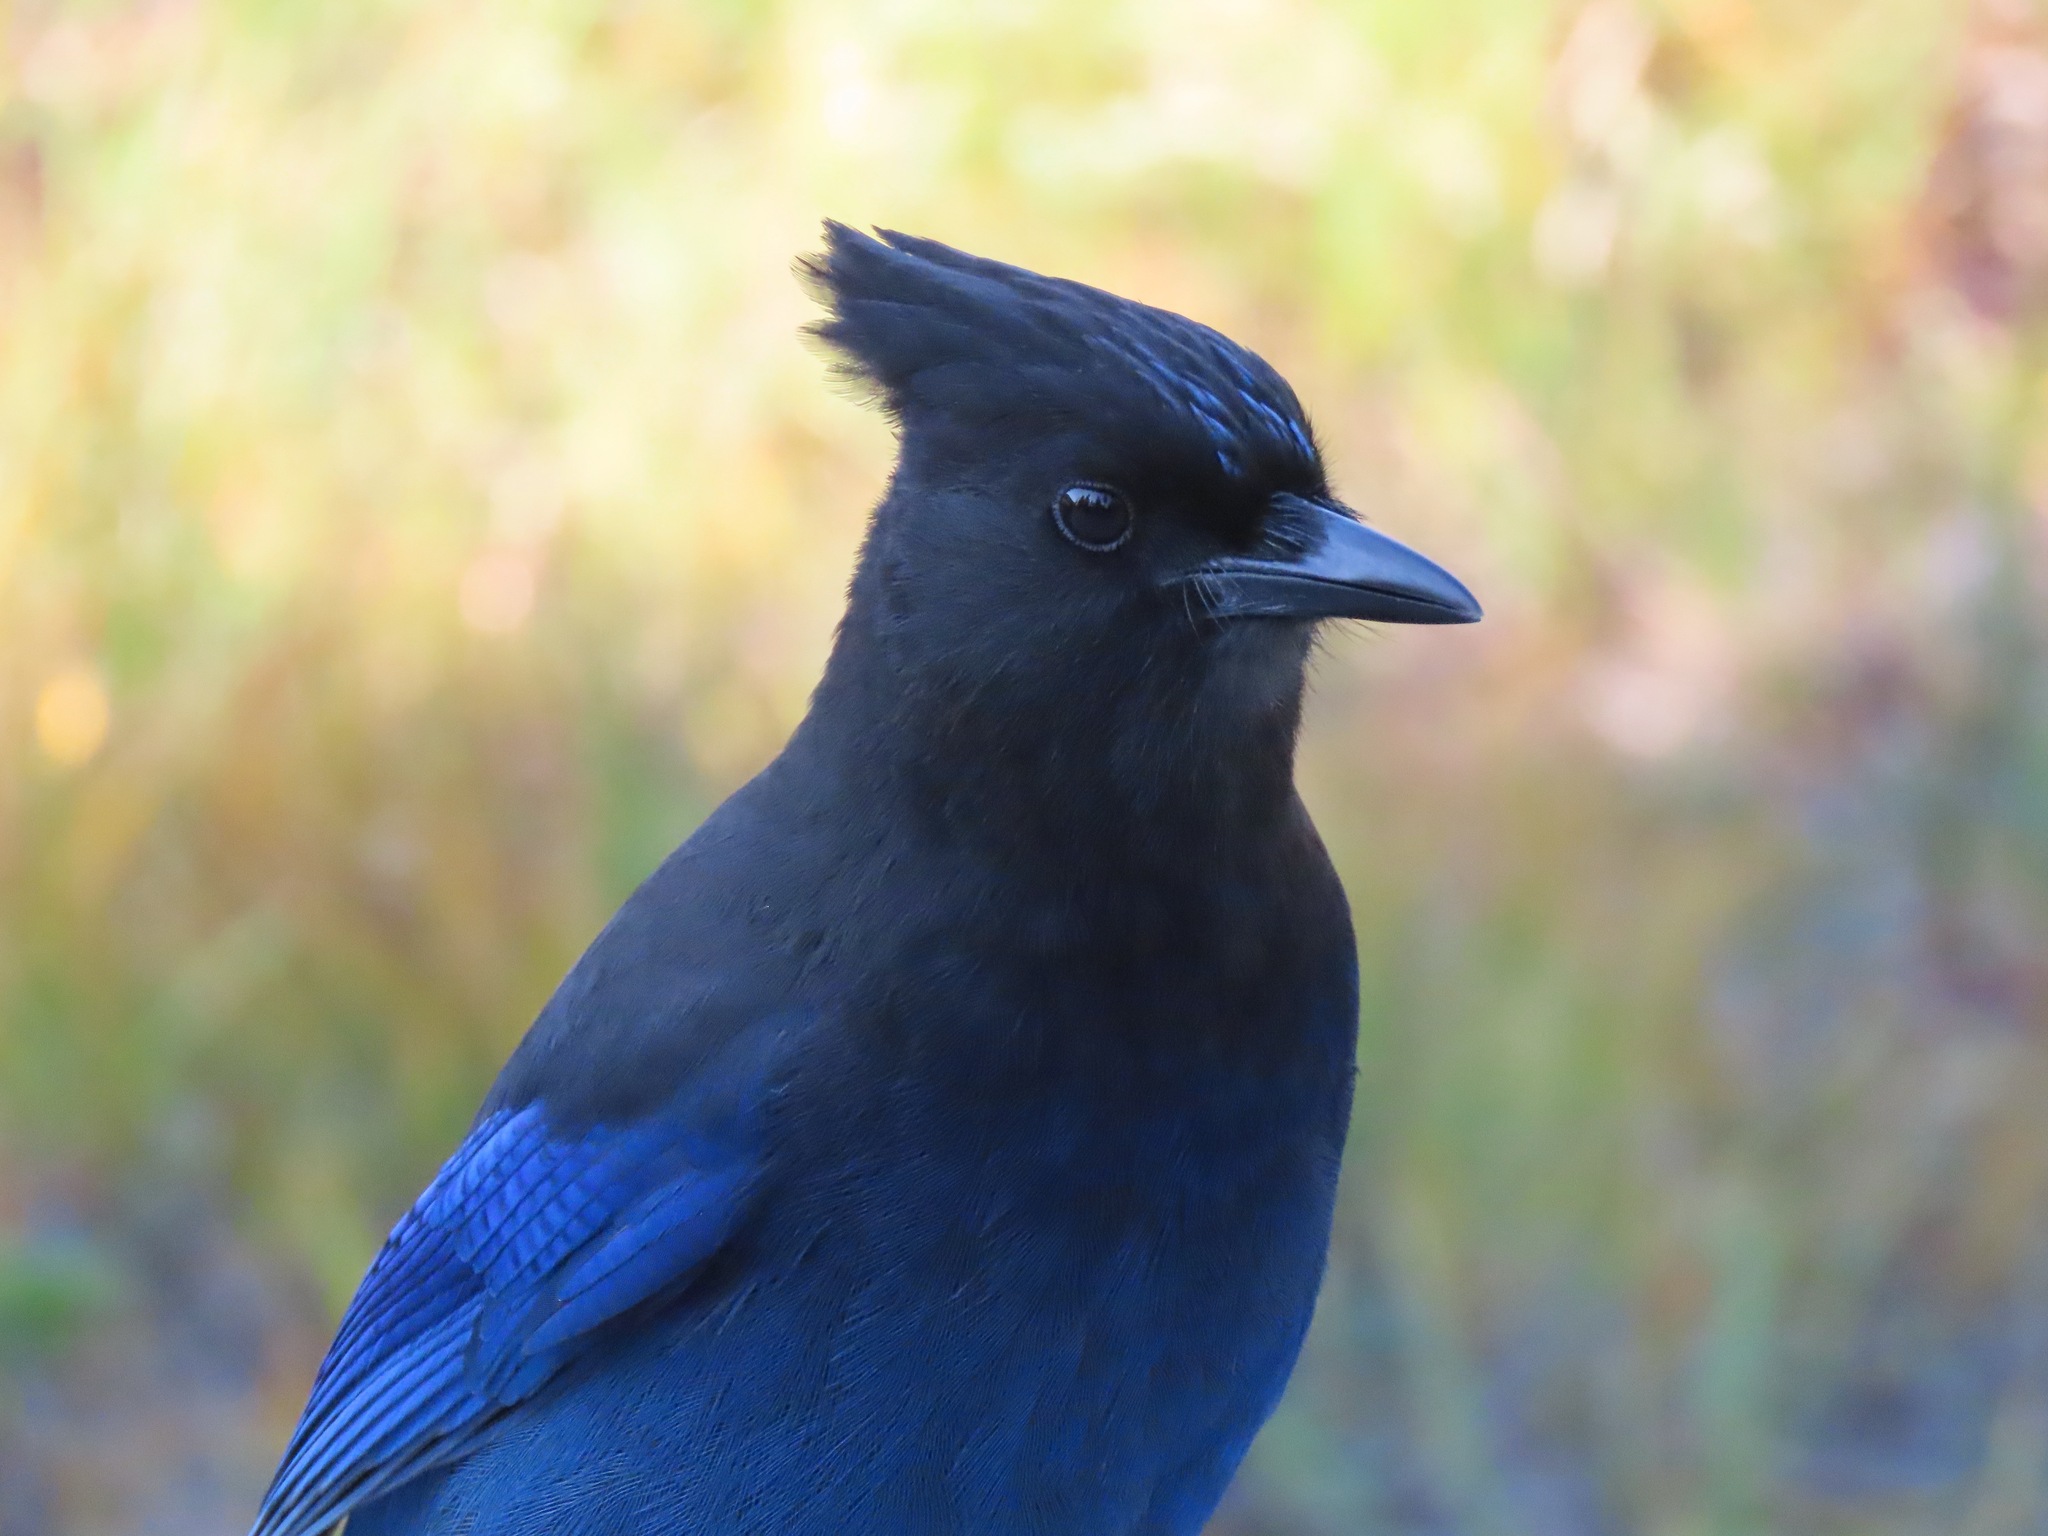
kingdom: Animalia
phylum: Chordata
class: Aves
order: Passeriformes
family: Corvidae
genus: Cyanocitta
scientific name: Cyanocitta stelleri
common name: Steller's jay
